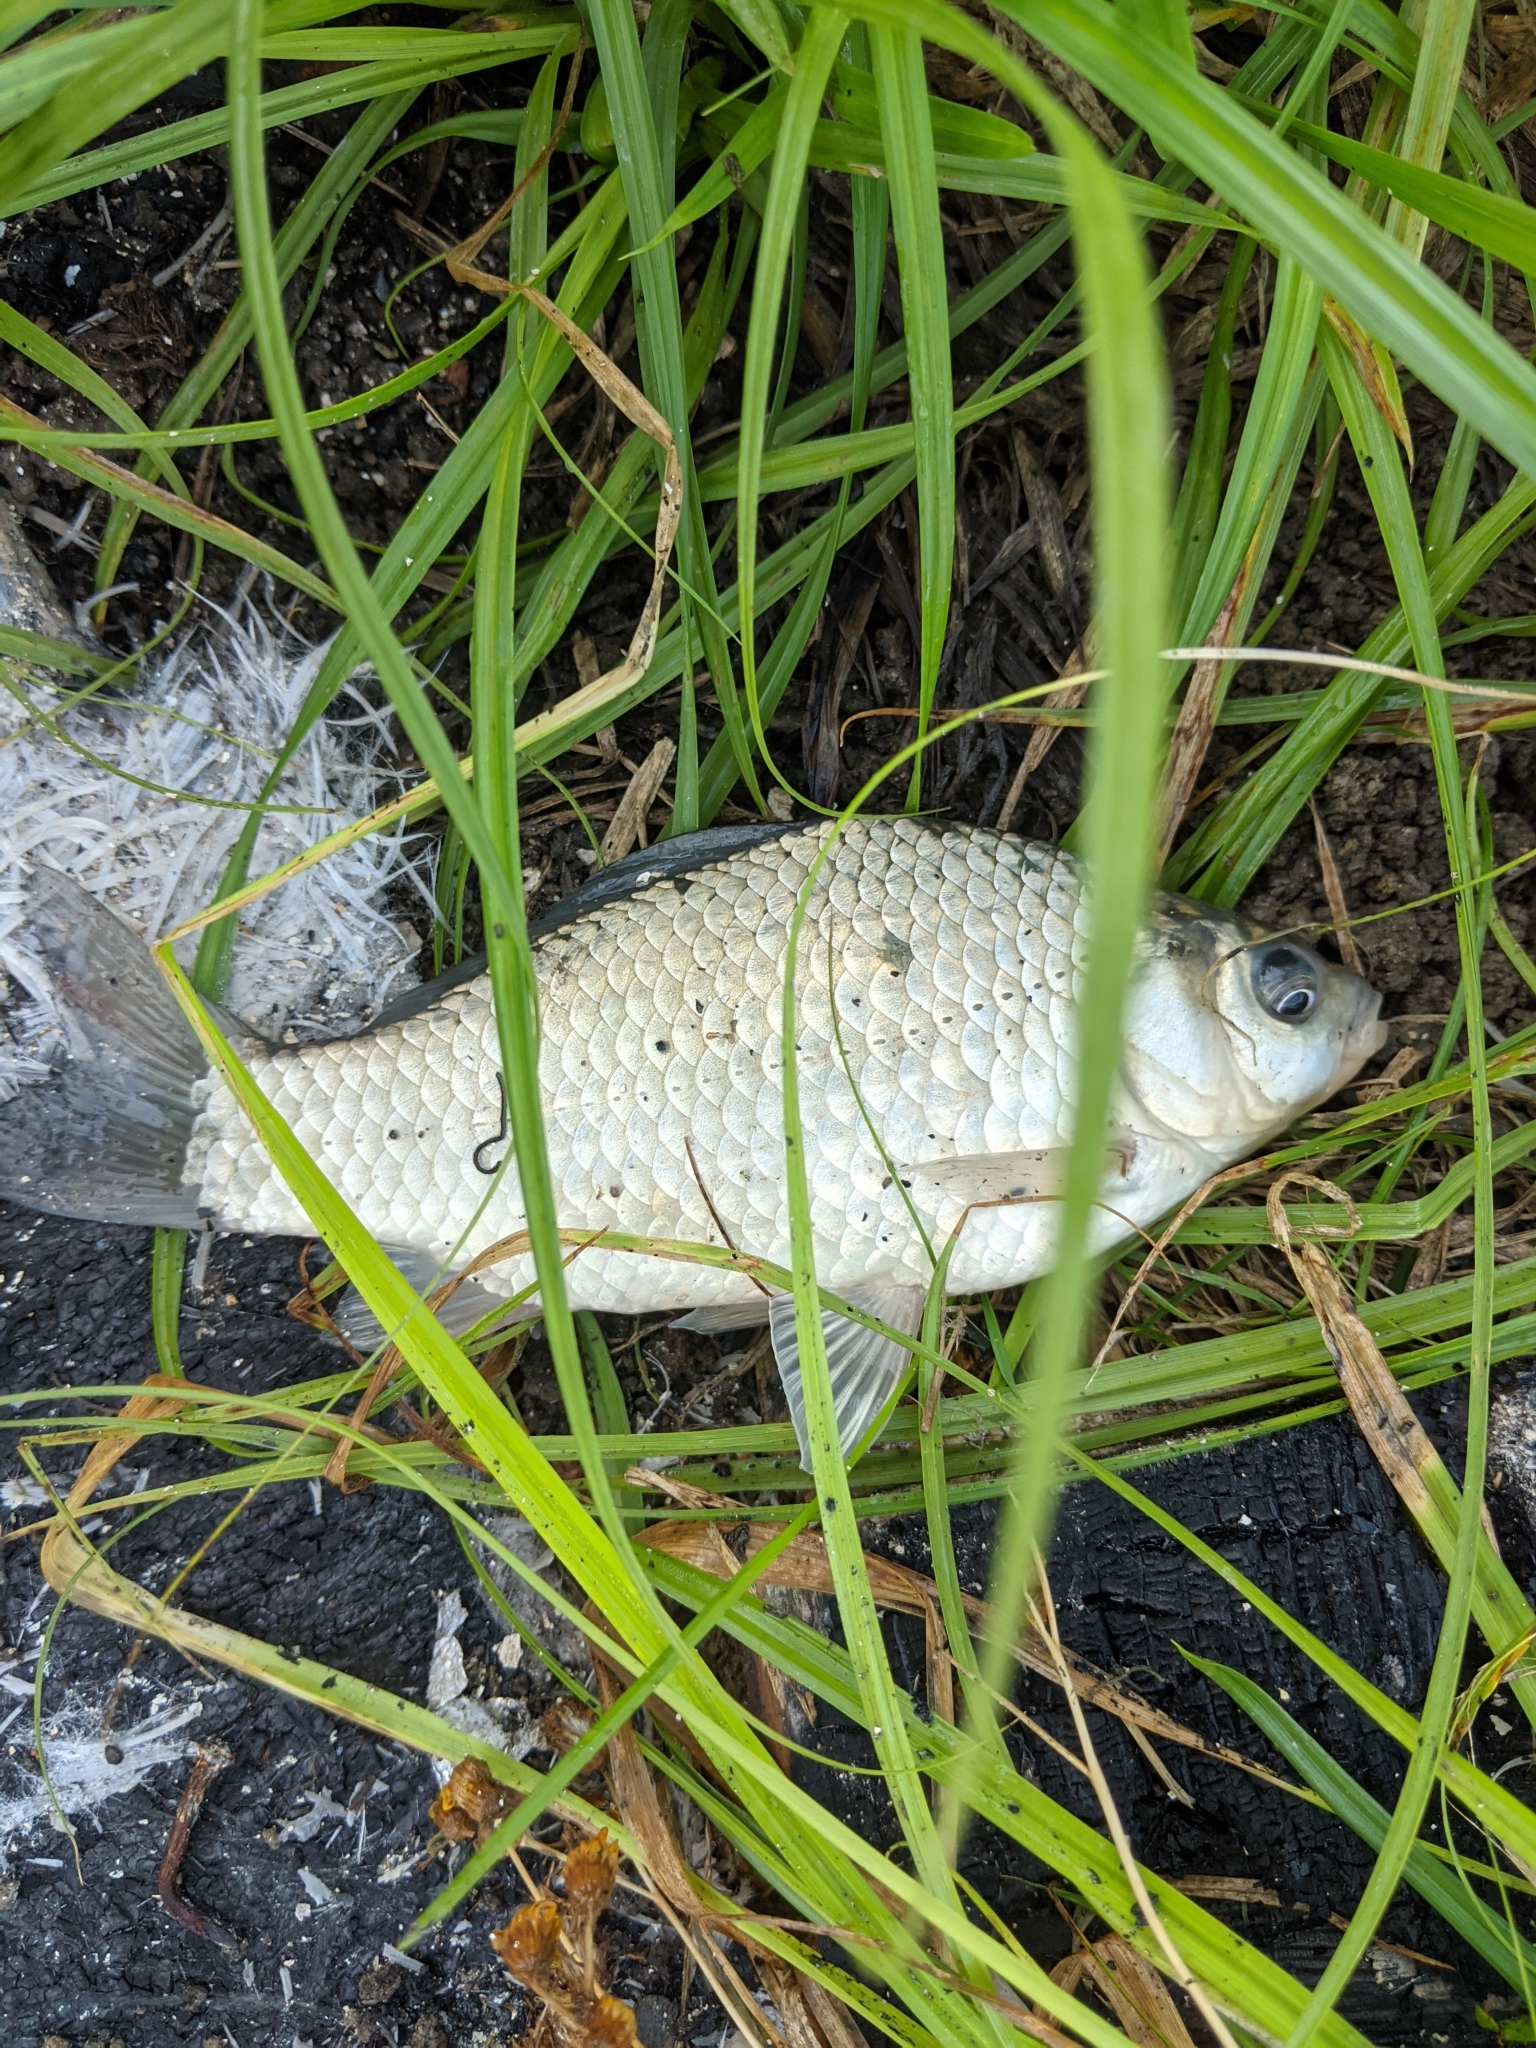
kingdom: Animalia
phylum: Chordata
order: Cypriniformes
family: Cyprinidae
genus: Carassius
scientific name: Carassius gibelio
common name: Prussian carp
